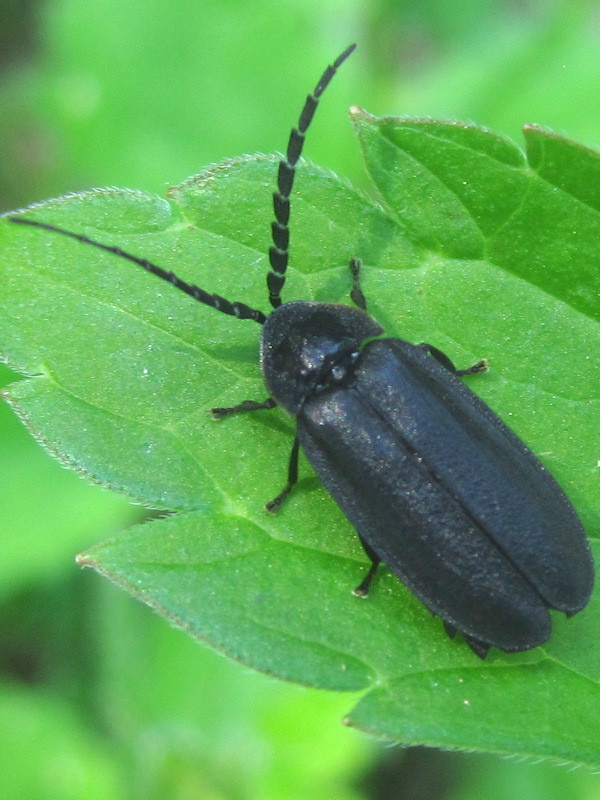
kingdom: Animalia
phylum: Arthropoda
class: Insecta
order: Coleoptera
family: Lampyridae
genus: Lucidota
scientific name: Lucidota atra
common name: Black firefly
